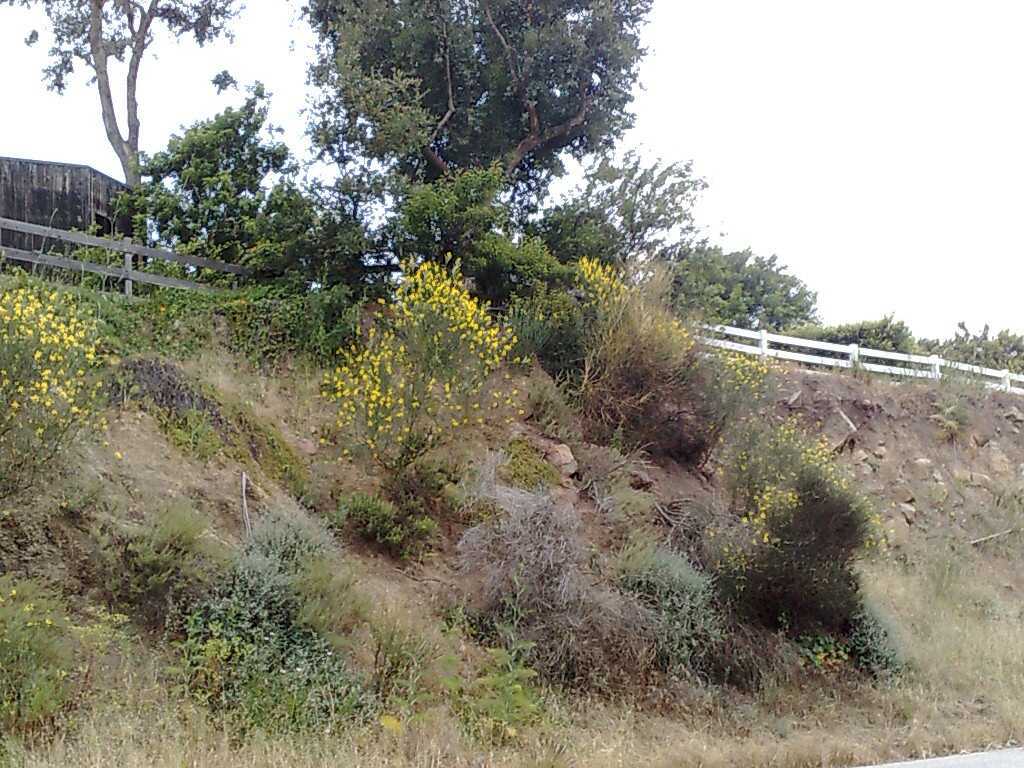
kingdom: Plantae
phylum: Tracheophyta
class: Magnoliopsida
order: Asterales
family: Asteraceae
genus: Artemisia
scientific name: Artemisia californica
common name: California sagebrush
